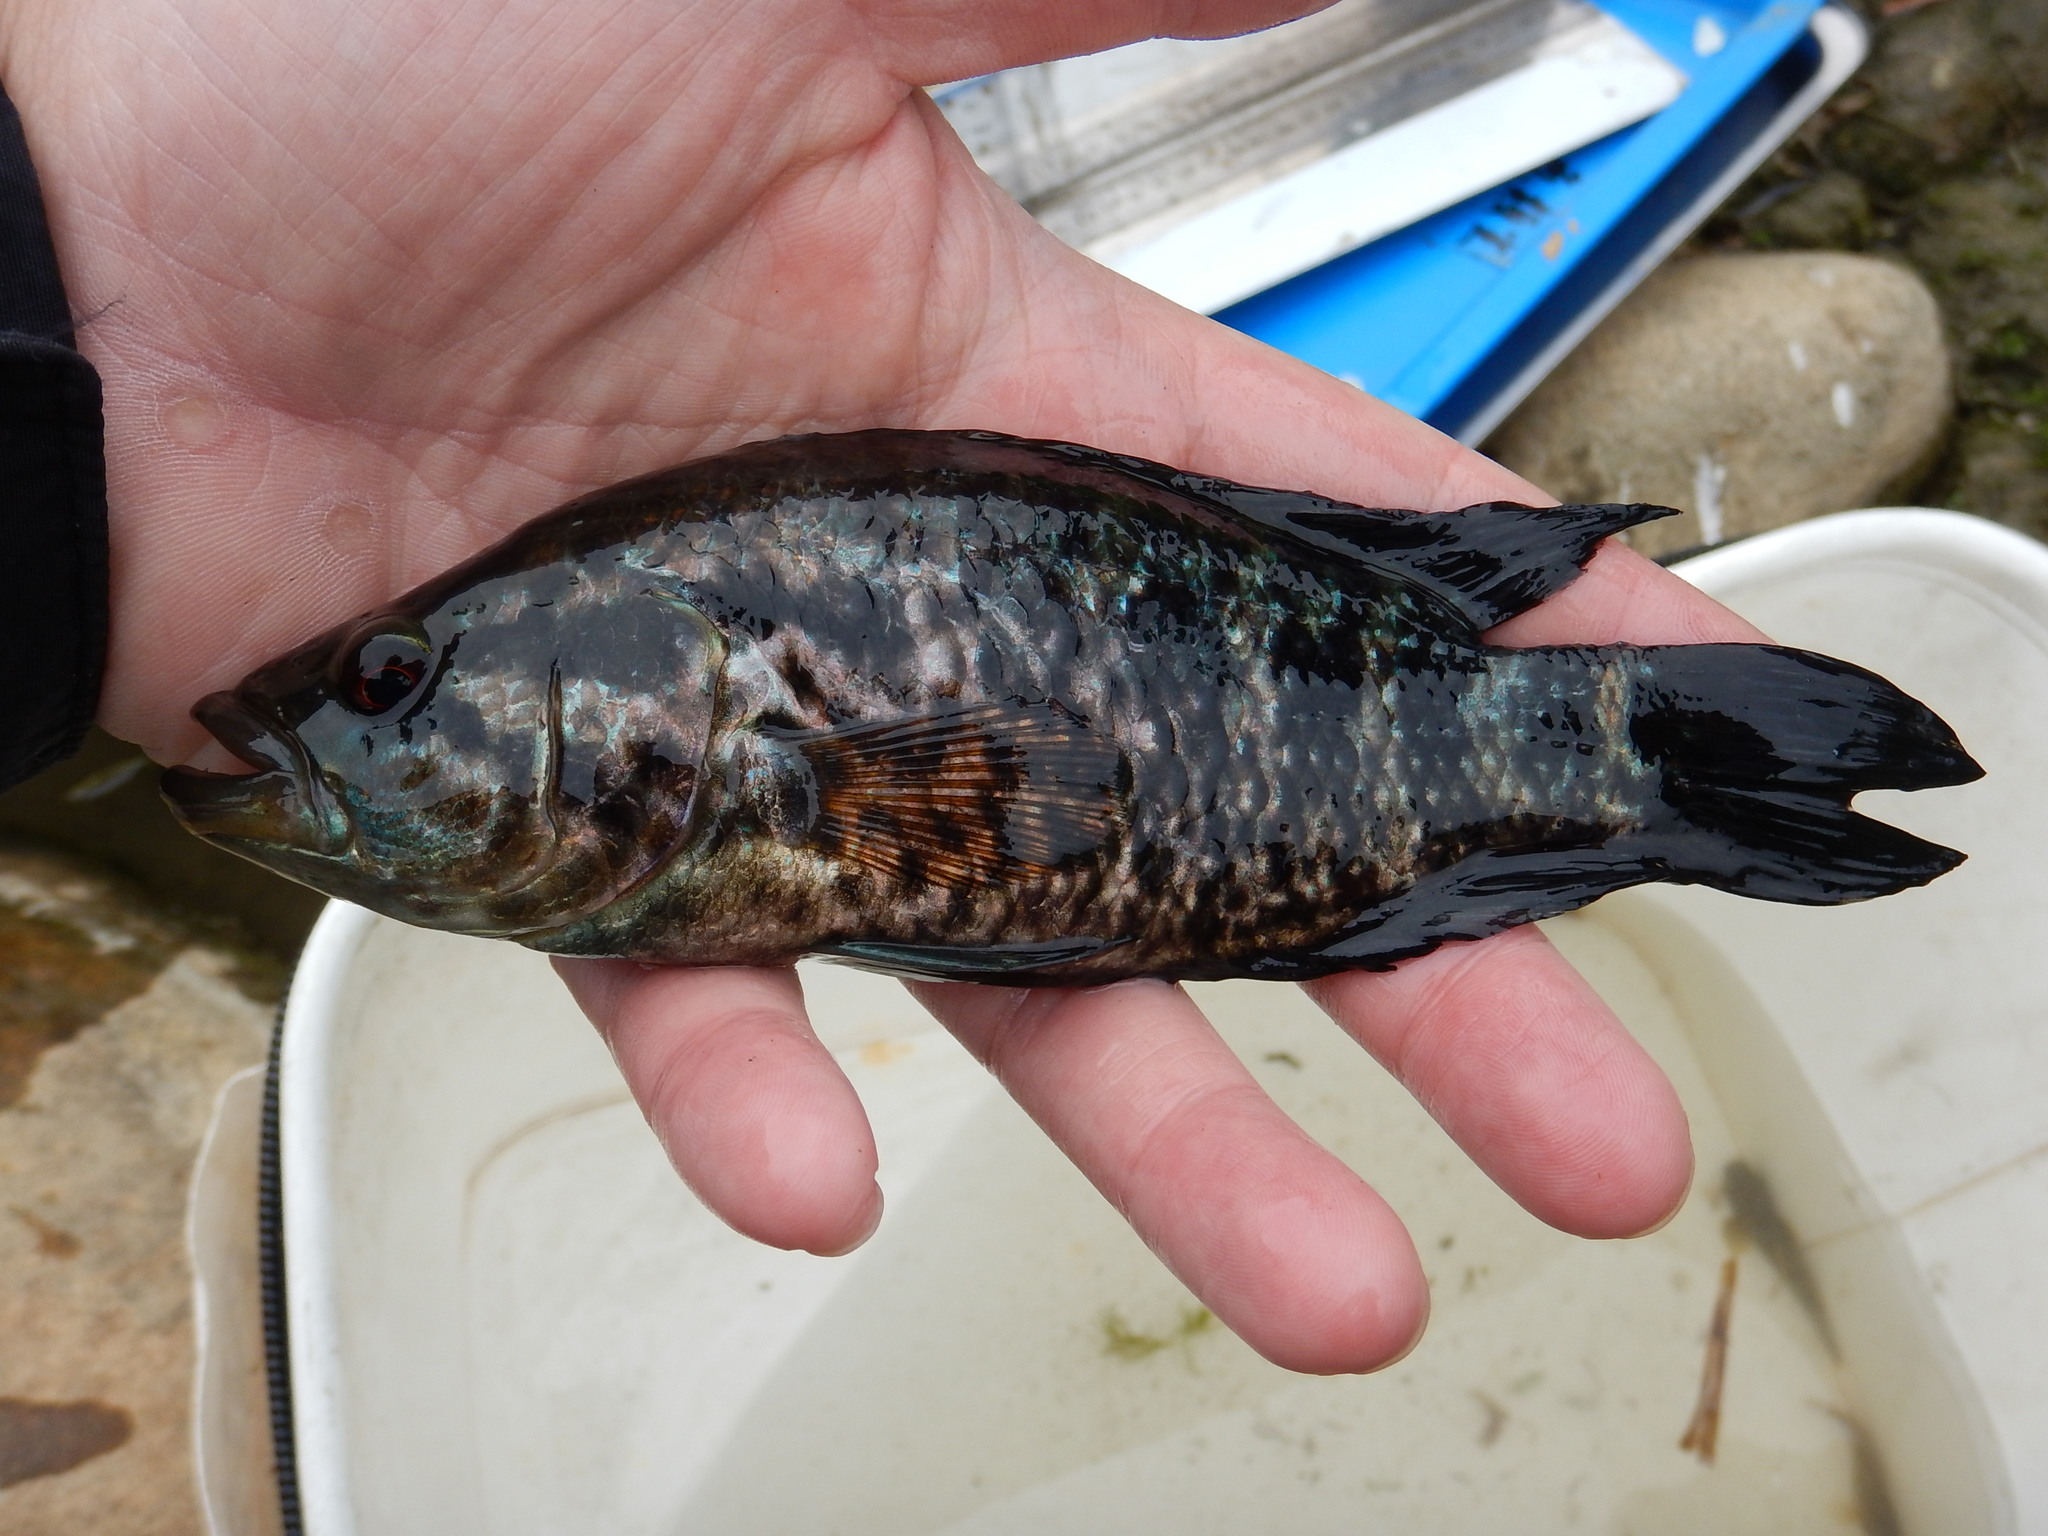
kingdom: Animalia
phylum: Chordata
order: Perciformes
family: Cichlidae
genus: Parachromis
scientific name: Parachromis managuensis
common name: Jaguar guapote
